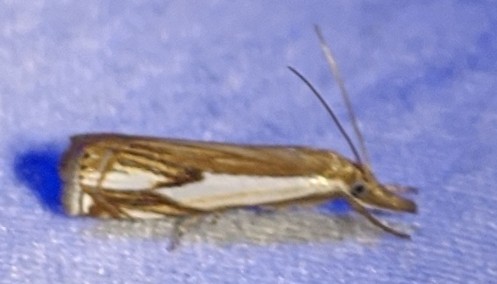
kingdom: Animalia
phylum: Arthropoda
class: Insecta
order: Lepidoptera
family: Crambidae
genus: Crambus
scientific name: Crambus agitatellus
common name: Double-banded grass-veneer
